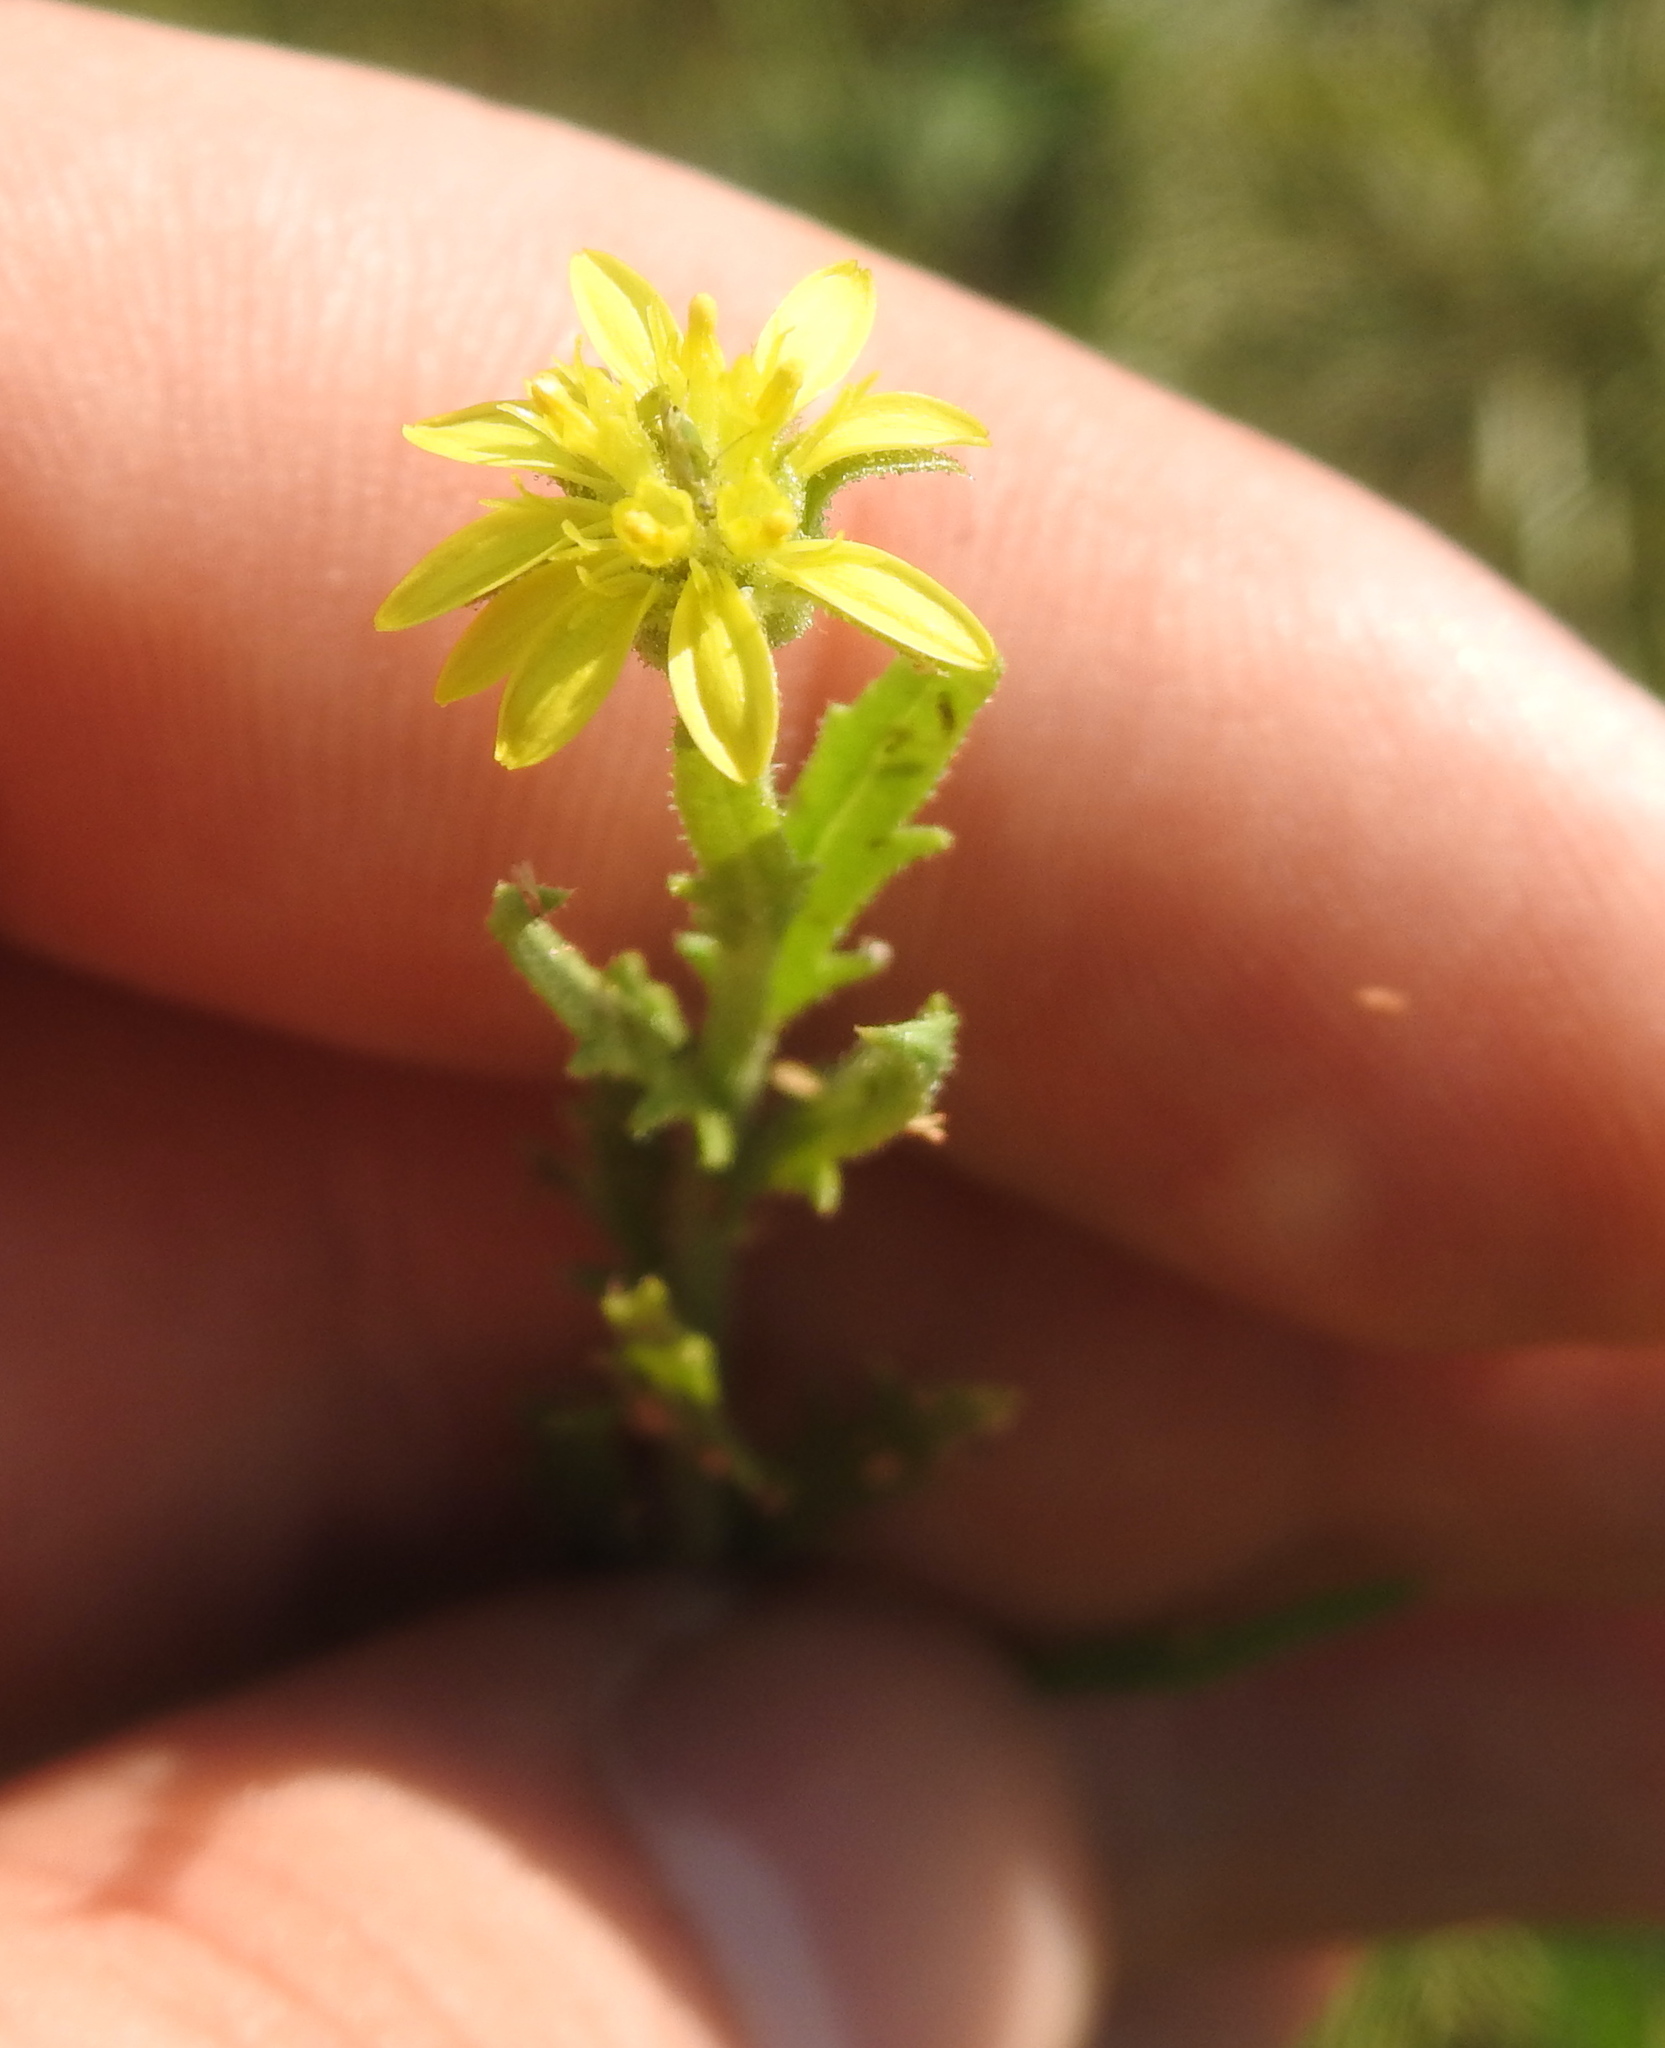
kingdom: Plantae
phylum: Tracheophyta
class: Magnoliopsida
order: Asterales
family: Asteraceae
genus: Osteospermum
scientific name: Osteospermum muricatum
